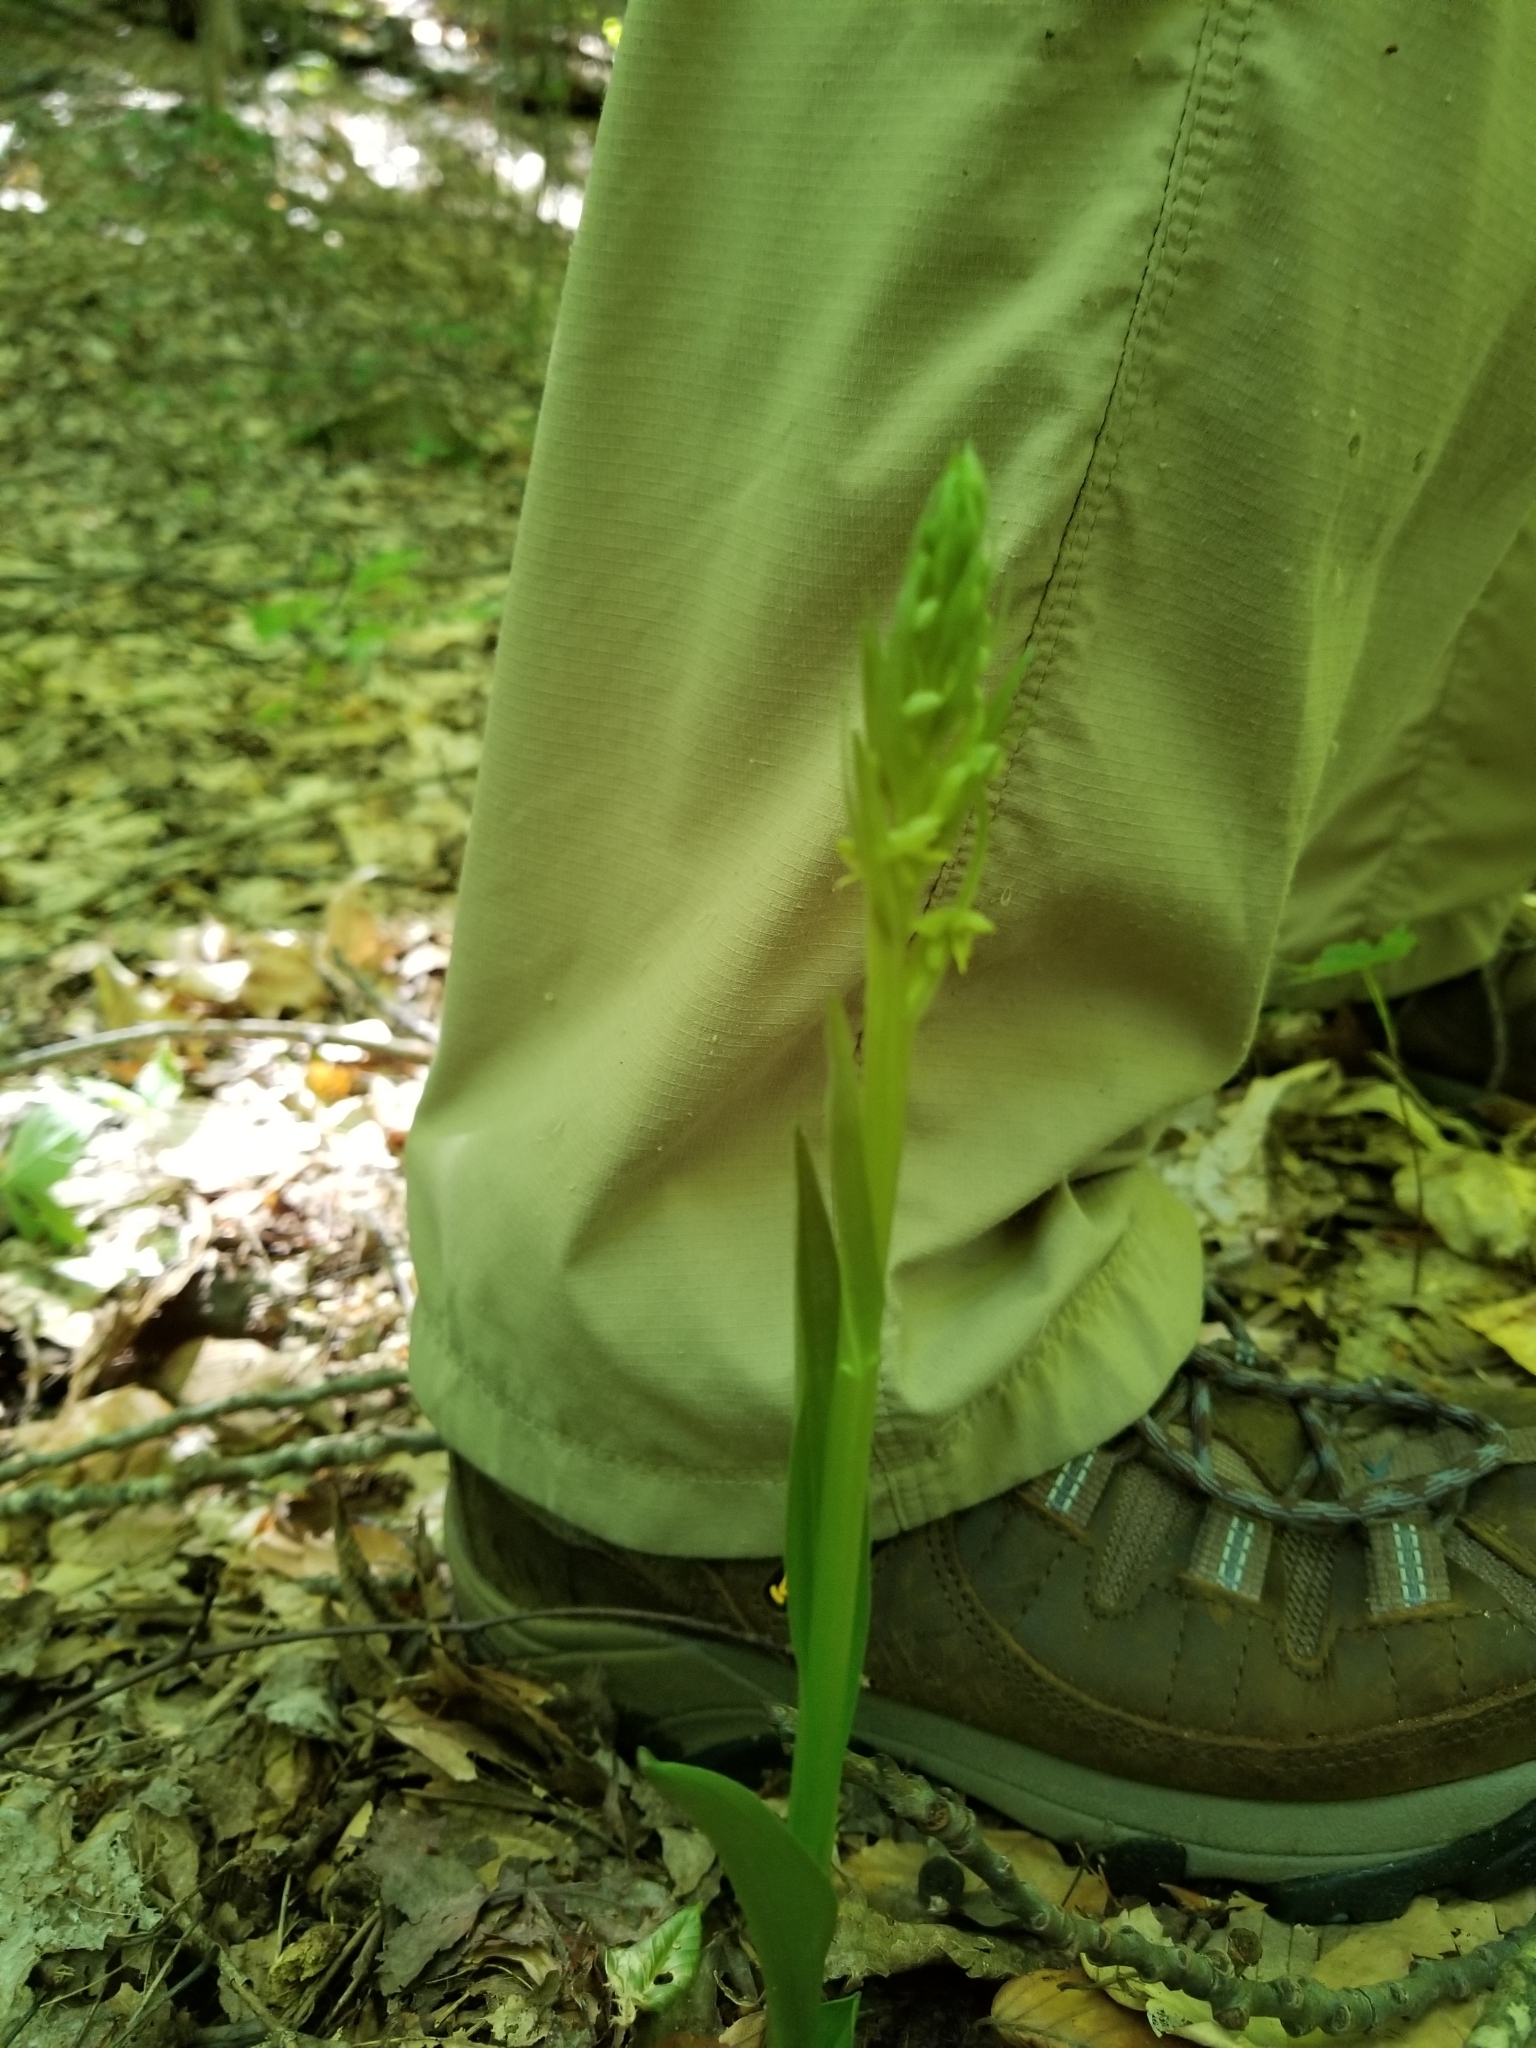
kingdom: Plantae
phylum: Tracheophyta
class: Liliopsida
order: Asparagales
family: Orchidaceae
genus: Platanthera
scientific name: Platanthera aquilonis
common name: Northern green orchid
